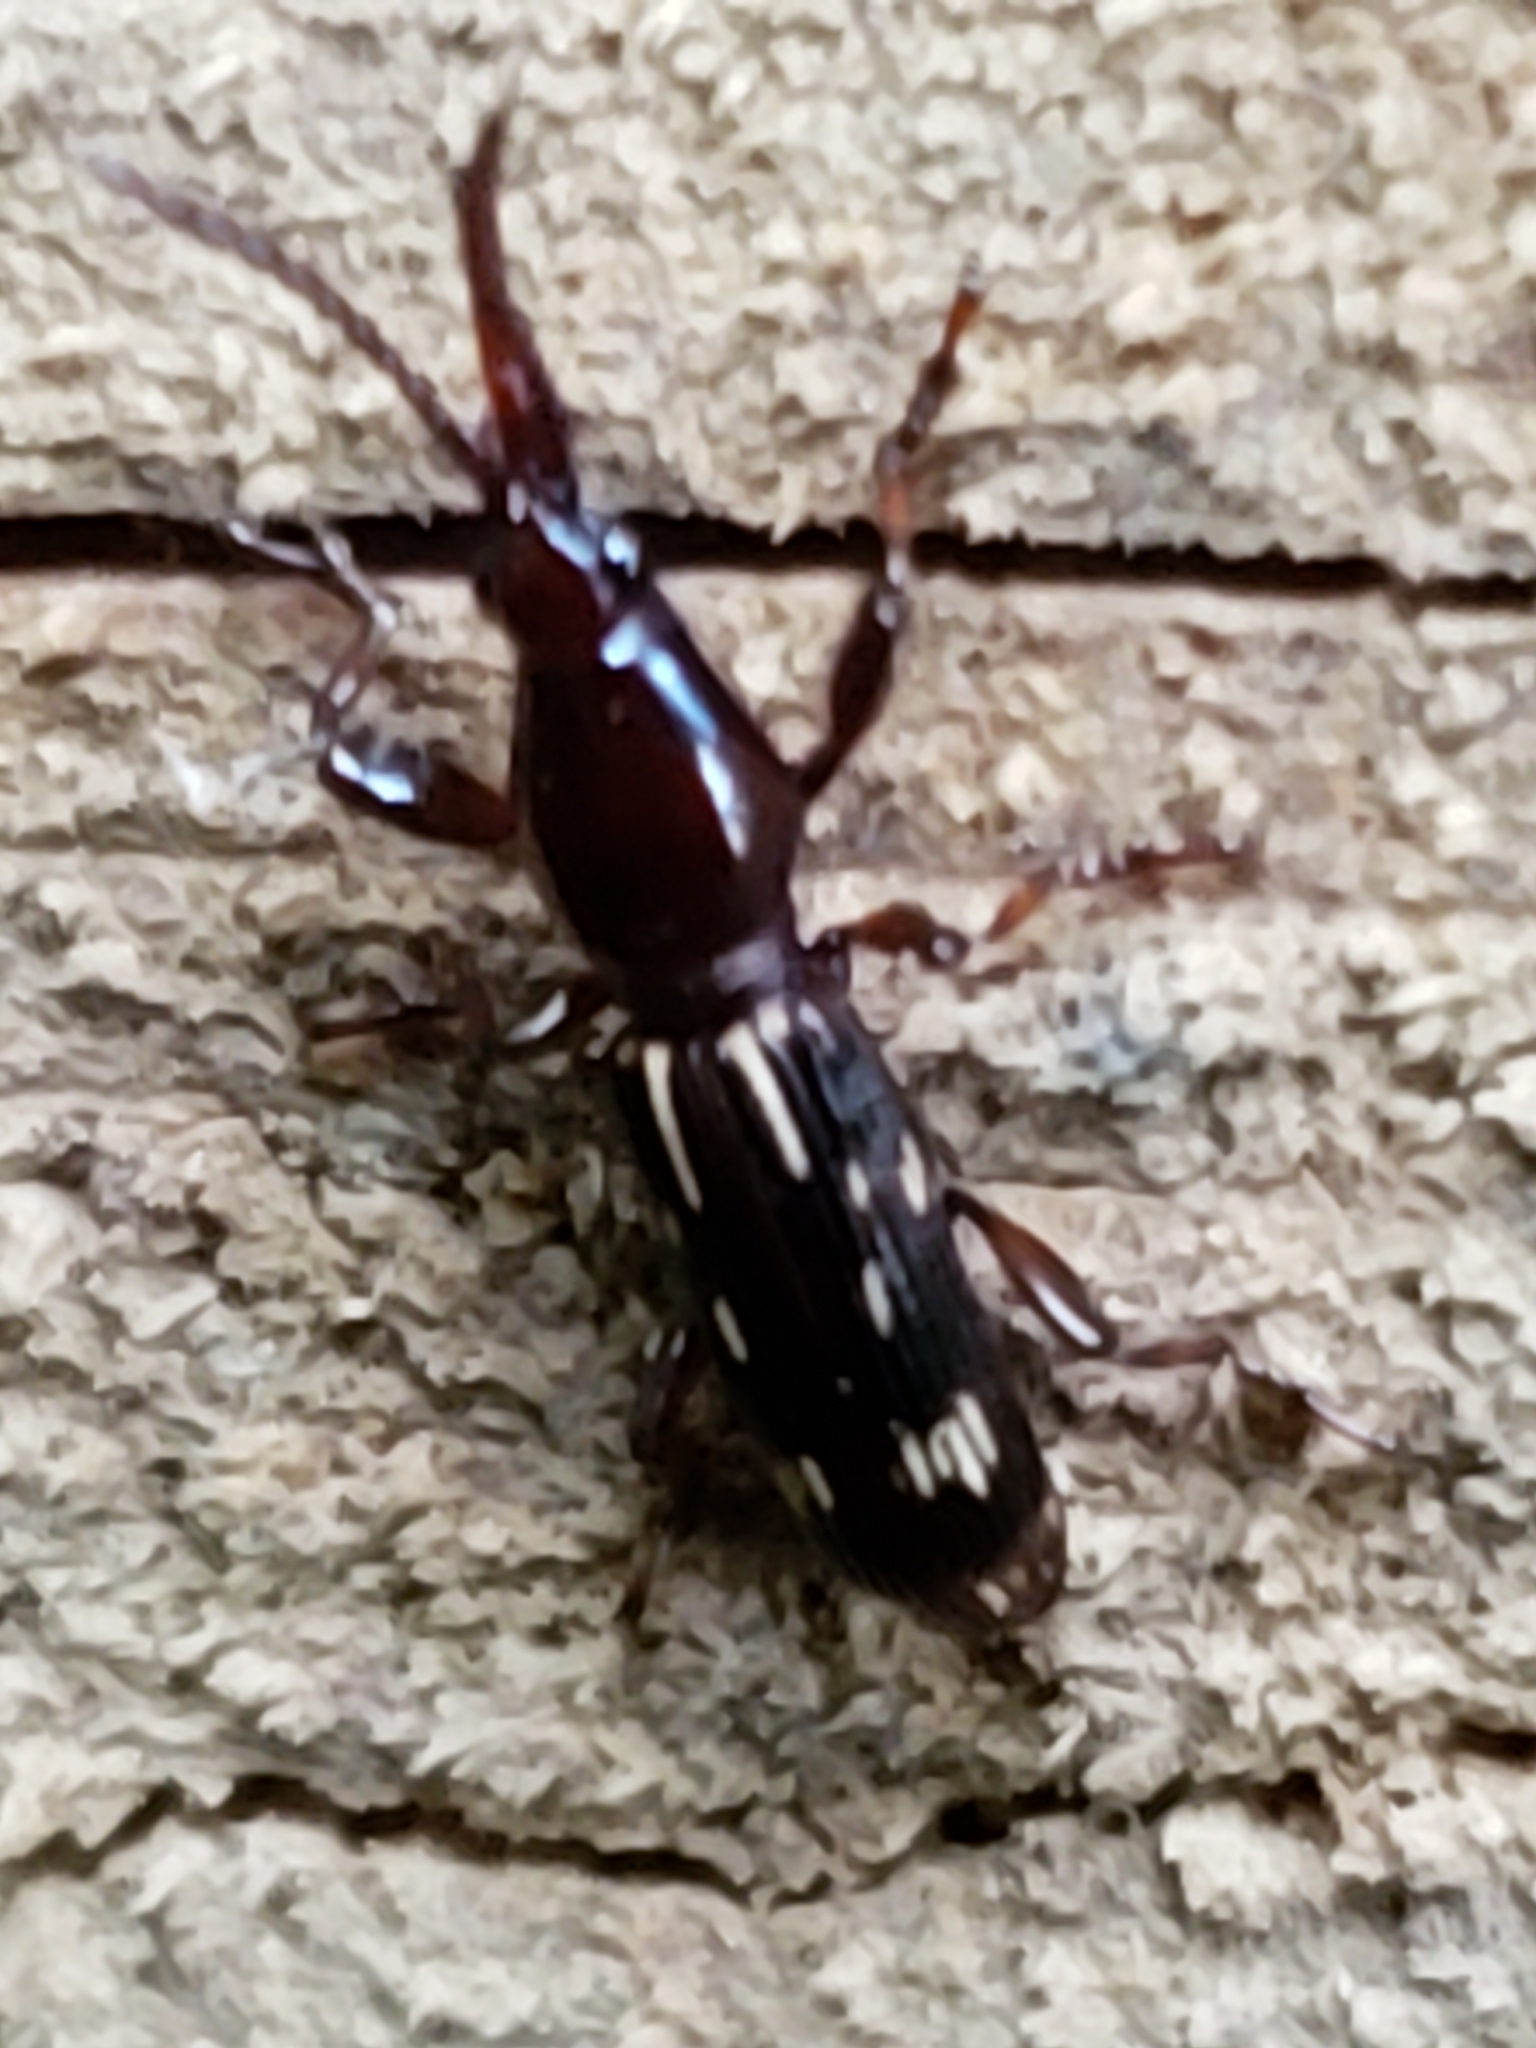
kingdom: Animalia
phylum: Arthropoda
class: Insecta
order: Coleoptera
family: Brentidae
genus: Arrenodes
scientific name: Arrenodes minutus
